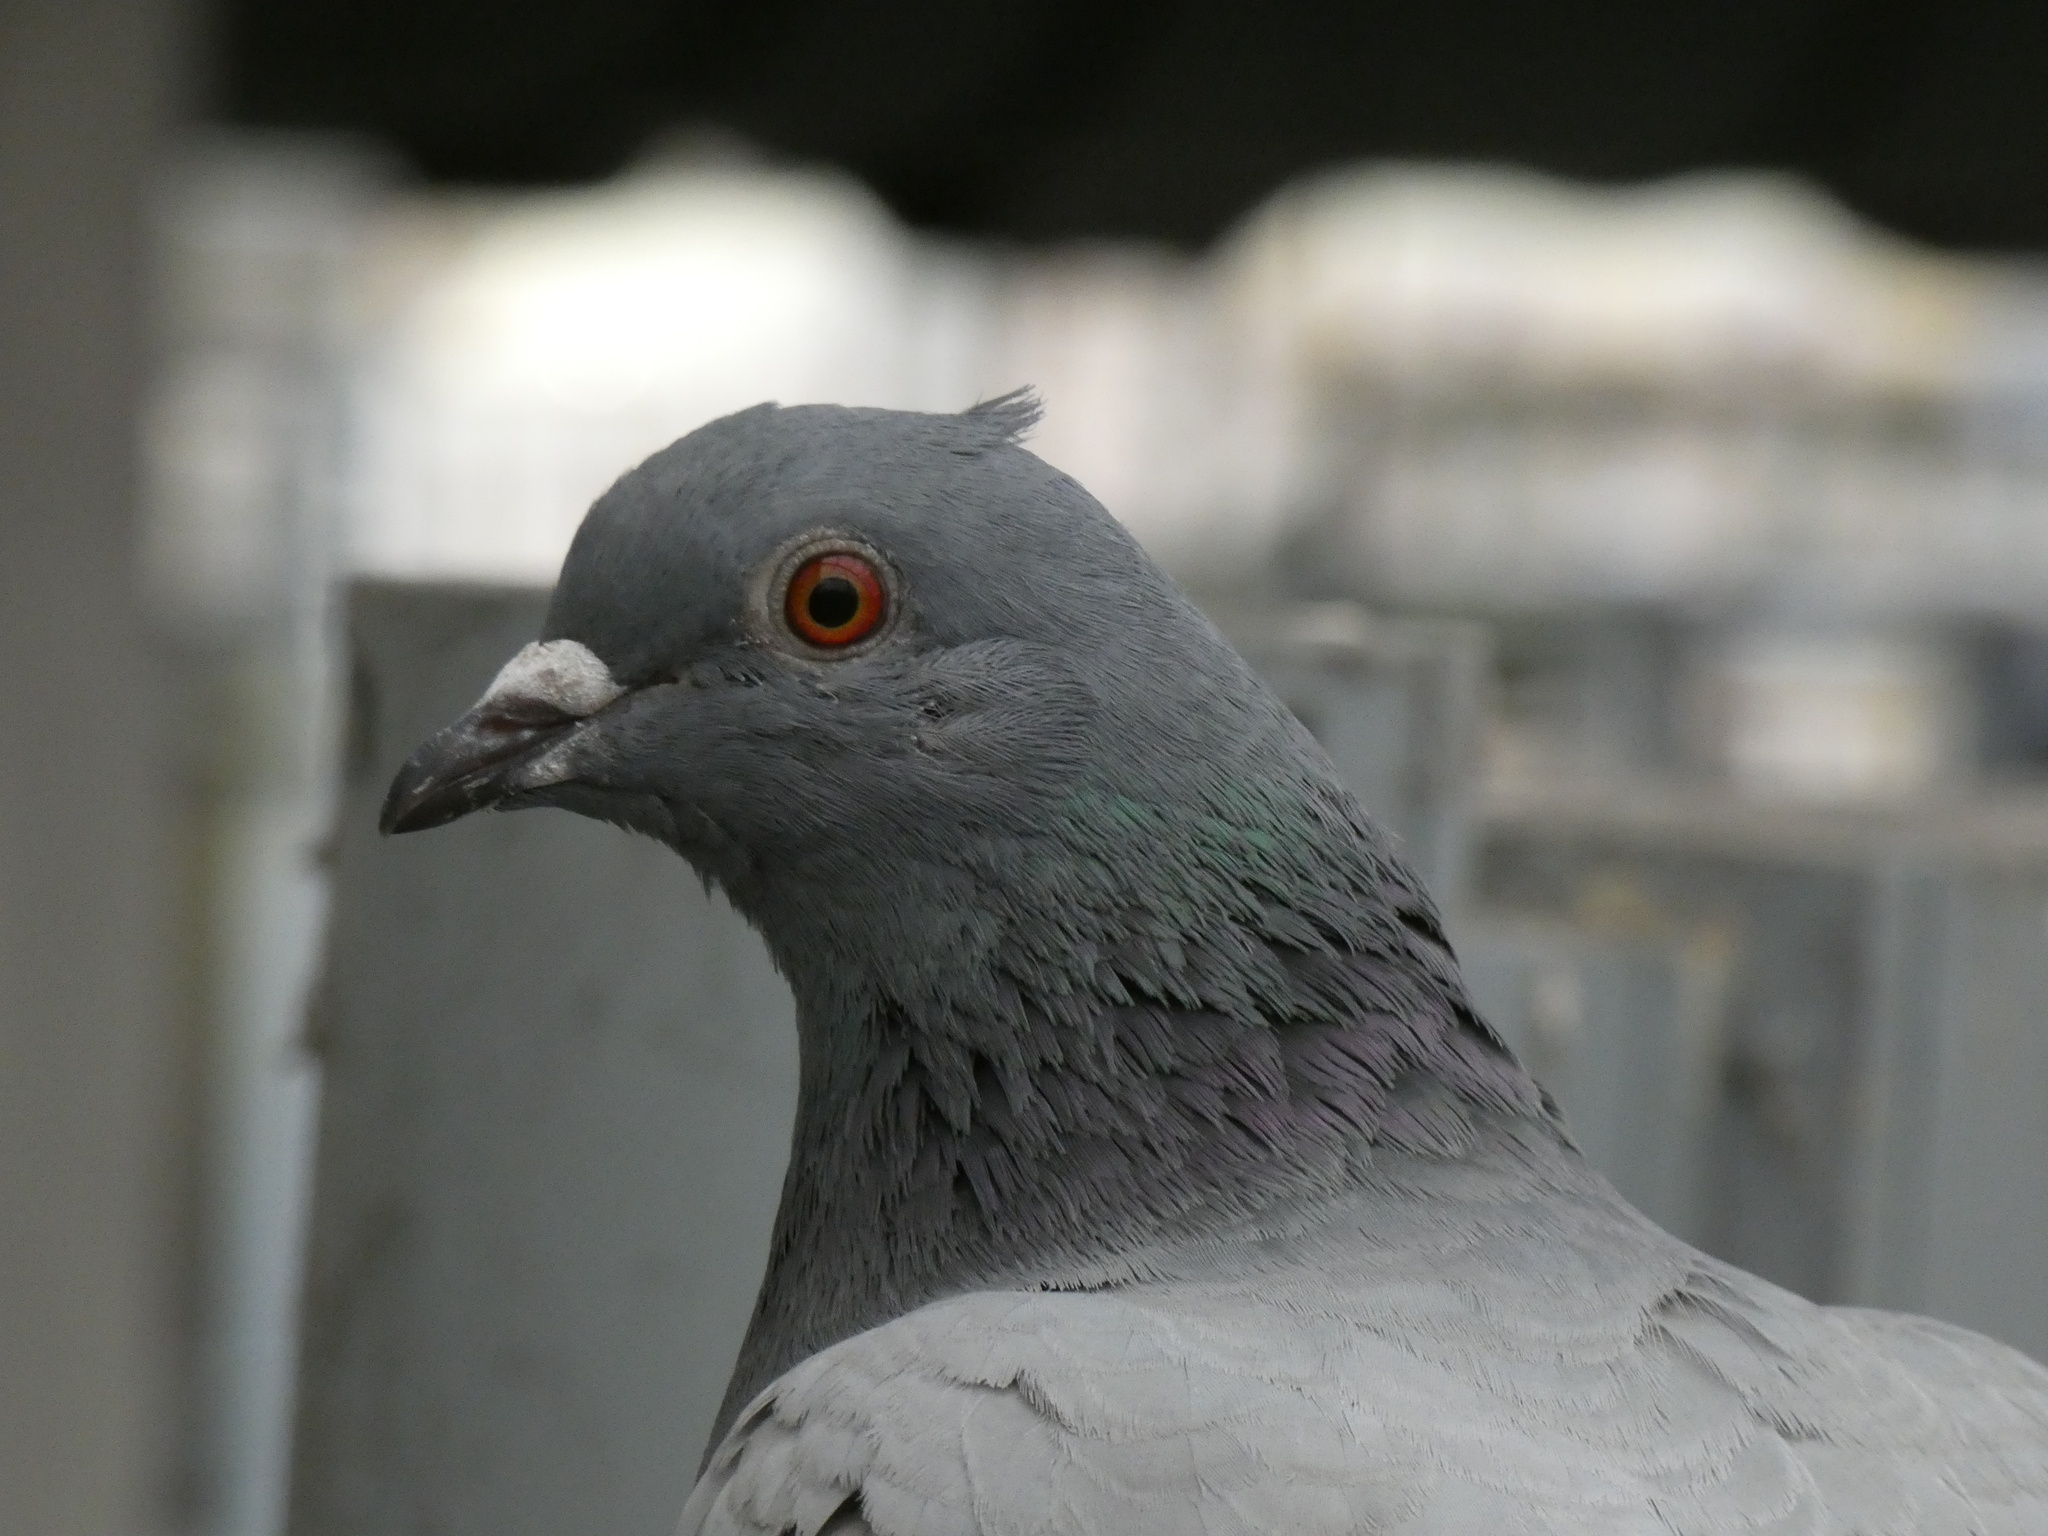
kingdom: Animalia
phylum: Chordata
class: Aves
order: Columbiformes
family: Columbidae
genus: Columba
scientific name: Columba livia
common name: Rock pigeon
